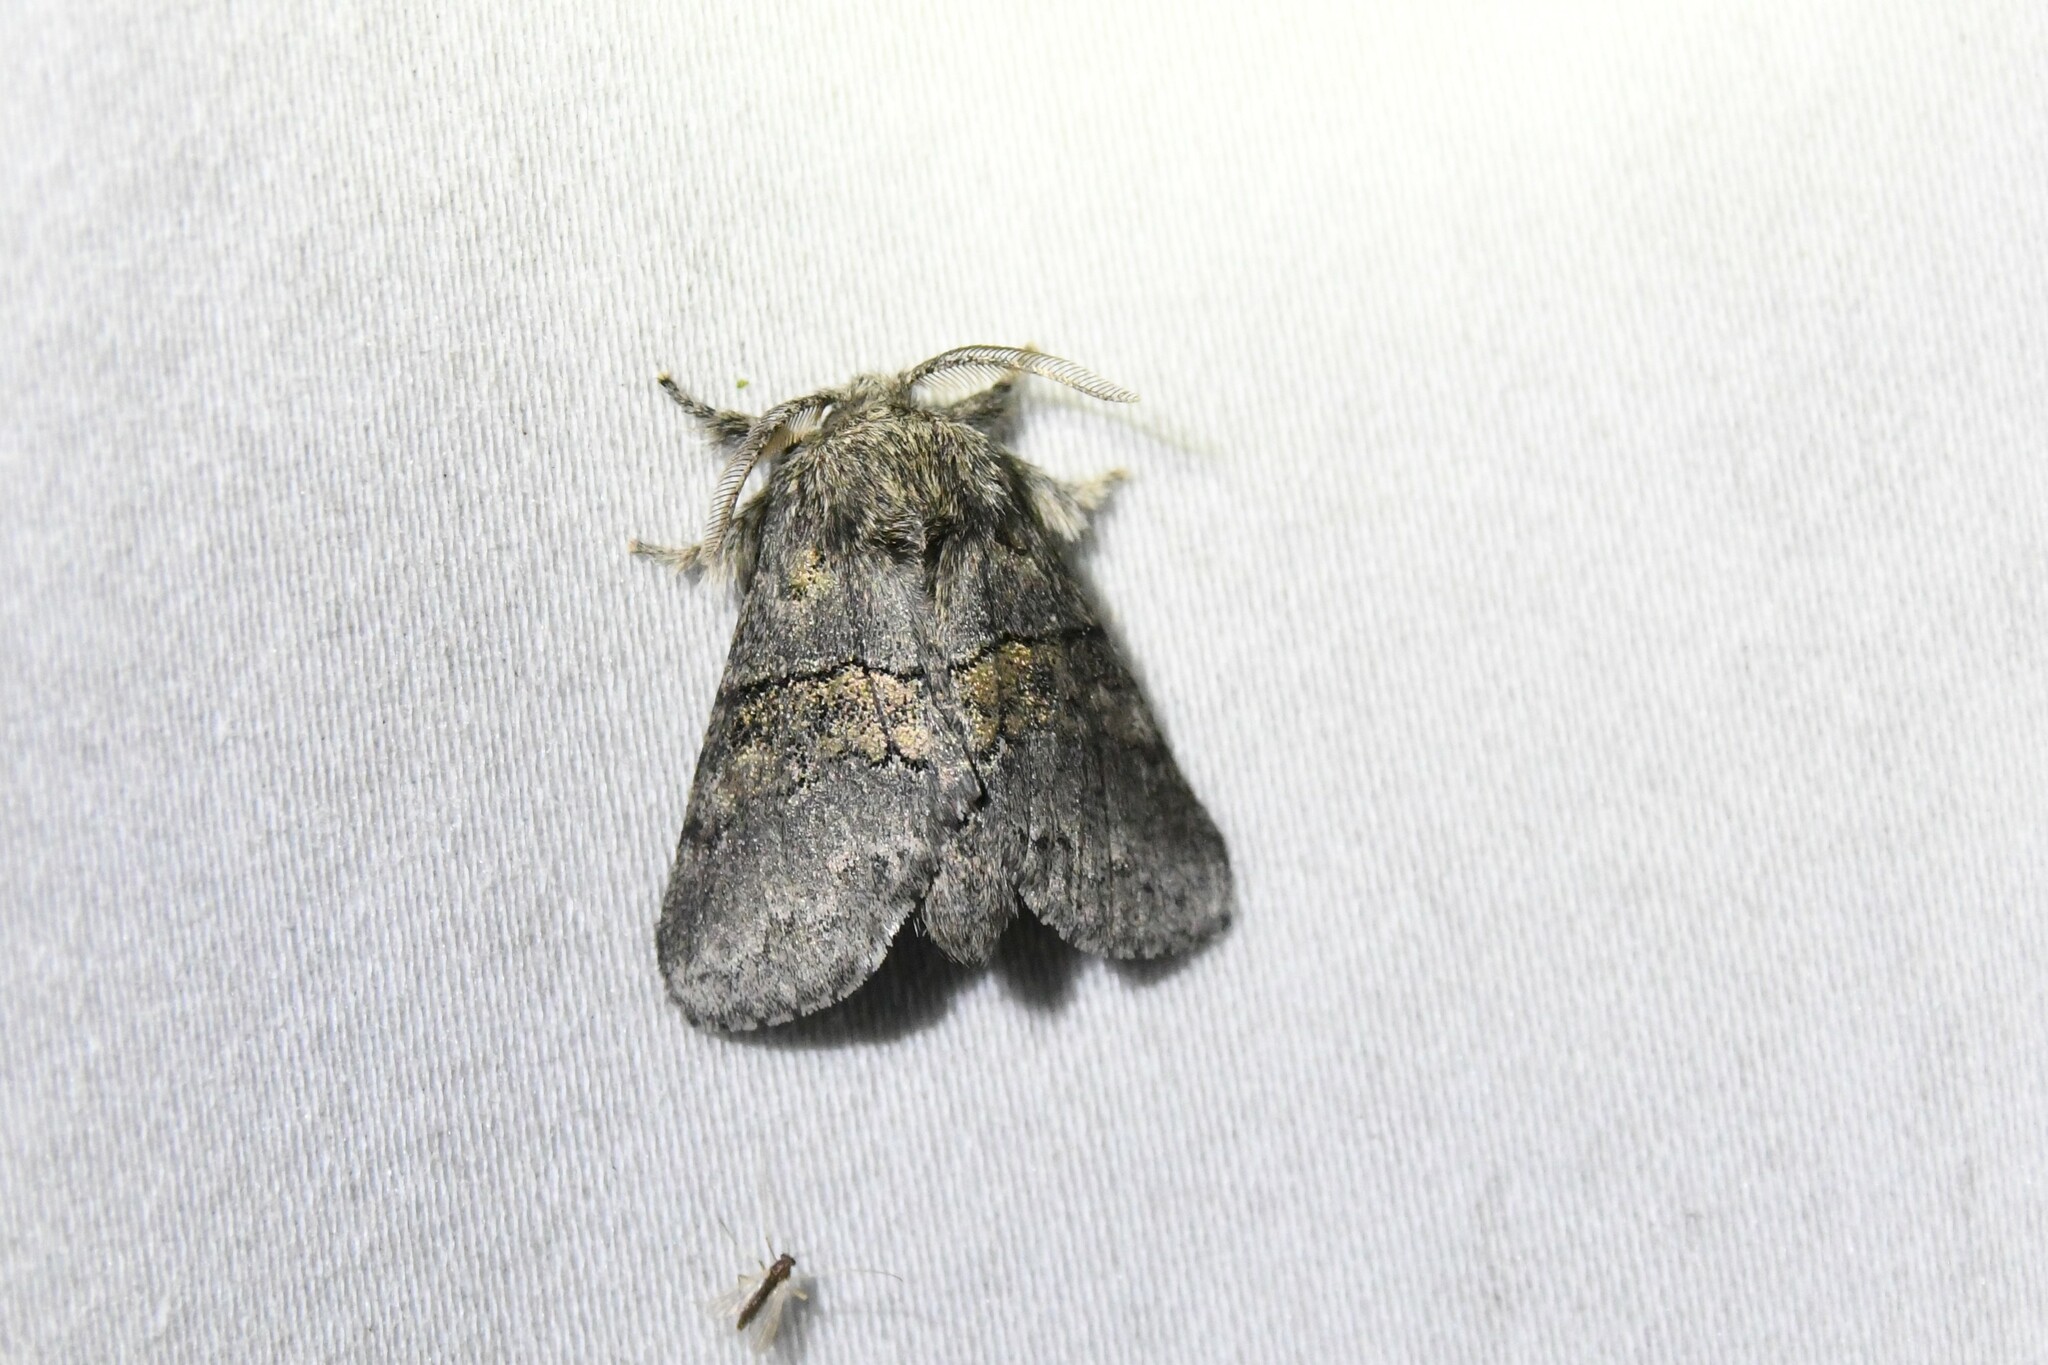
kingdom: Animalia
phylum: Arthropoda
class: Insecta
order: Lepidoptera
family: Notodontidae
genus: Gluphisia
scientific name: Gluphisia septentrionis
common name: Common gluphisia
